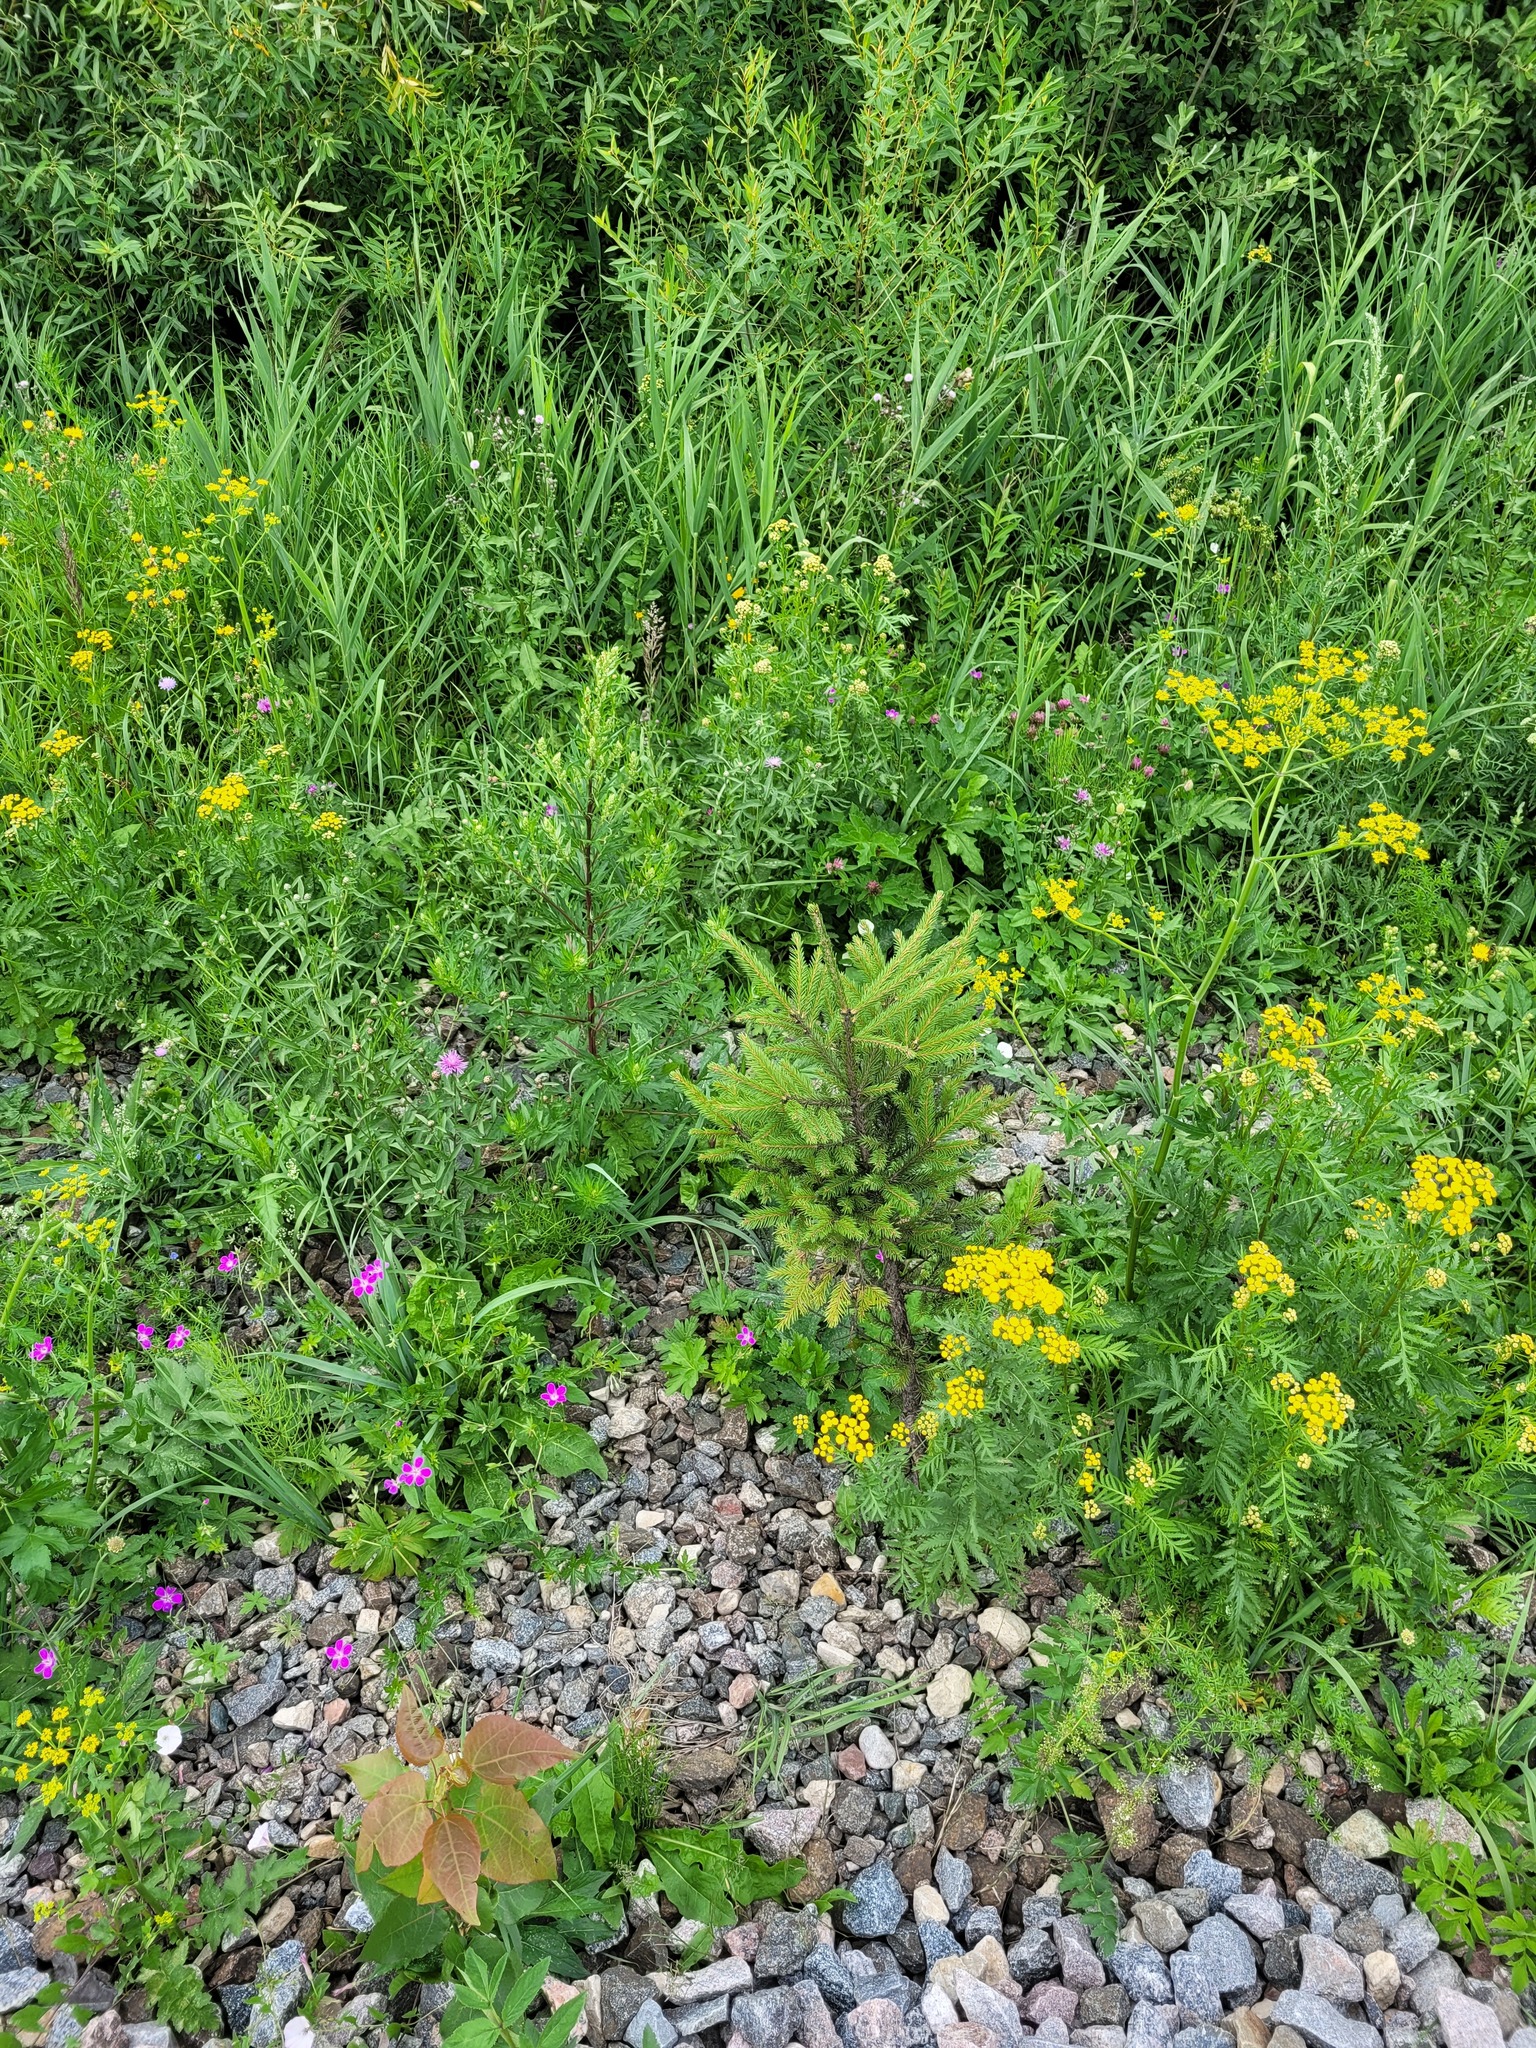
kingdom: Plantae
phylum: Tracheophyta
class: Pinopsida
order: Pinales
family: Pinaceae
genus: Picea
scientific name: Picea abies
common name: Norway spruce
